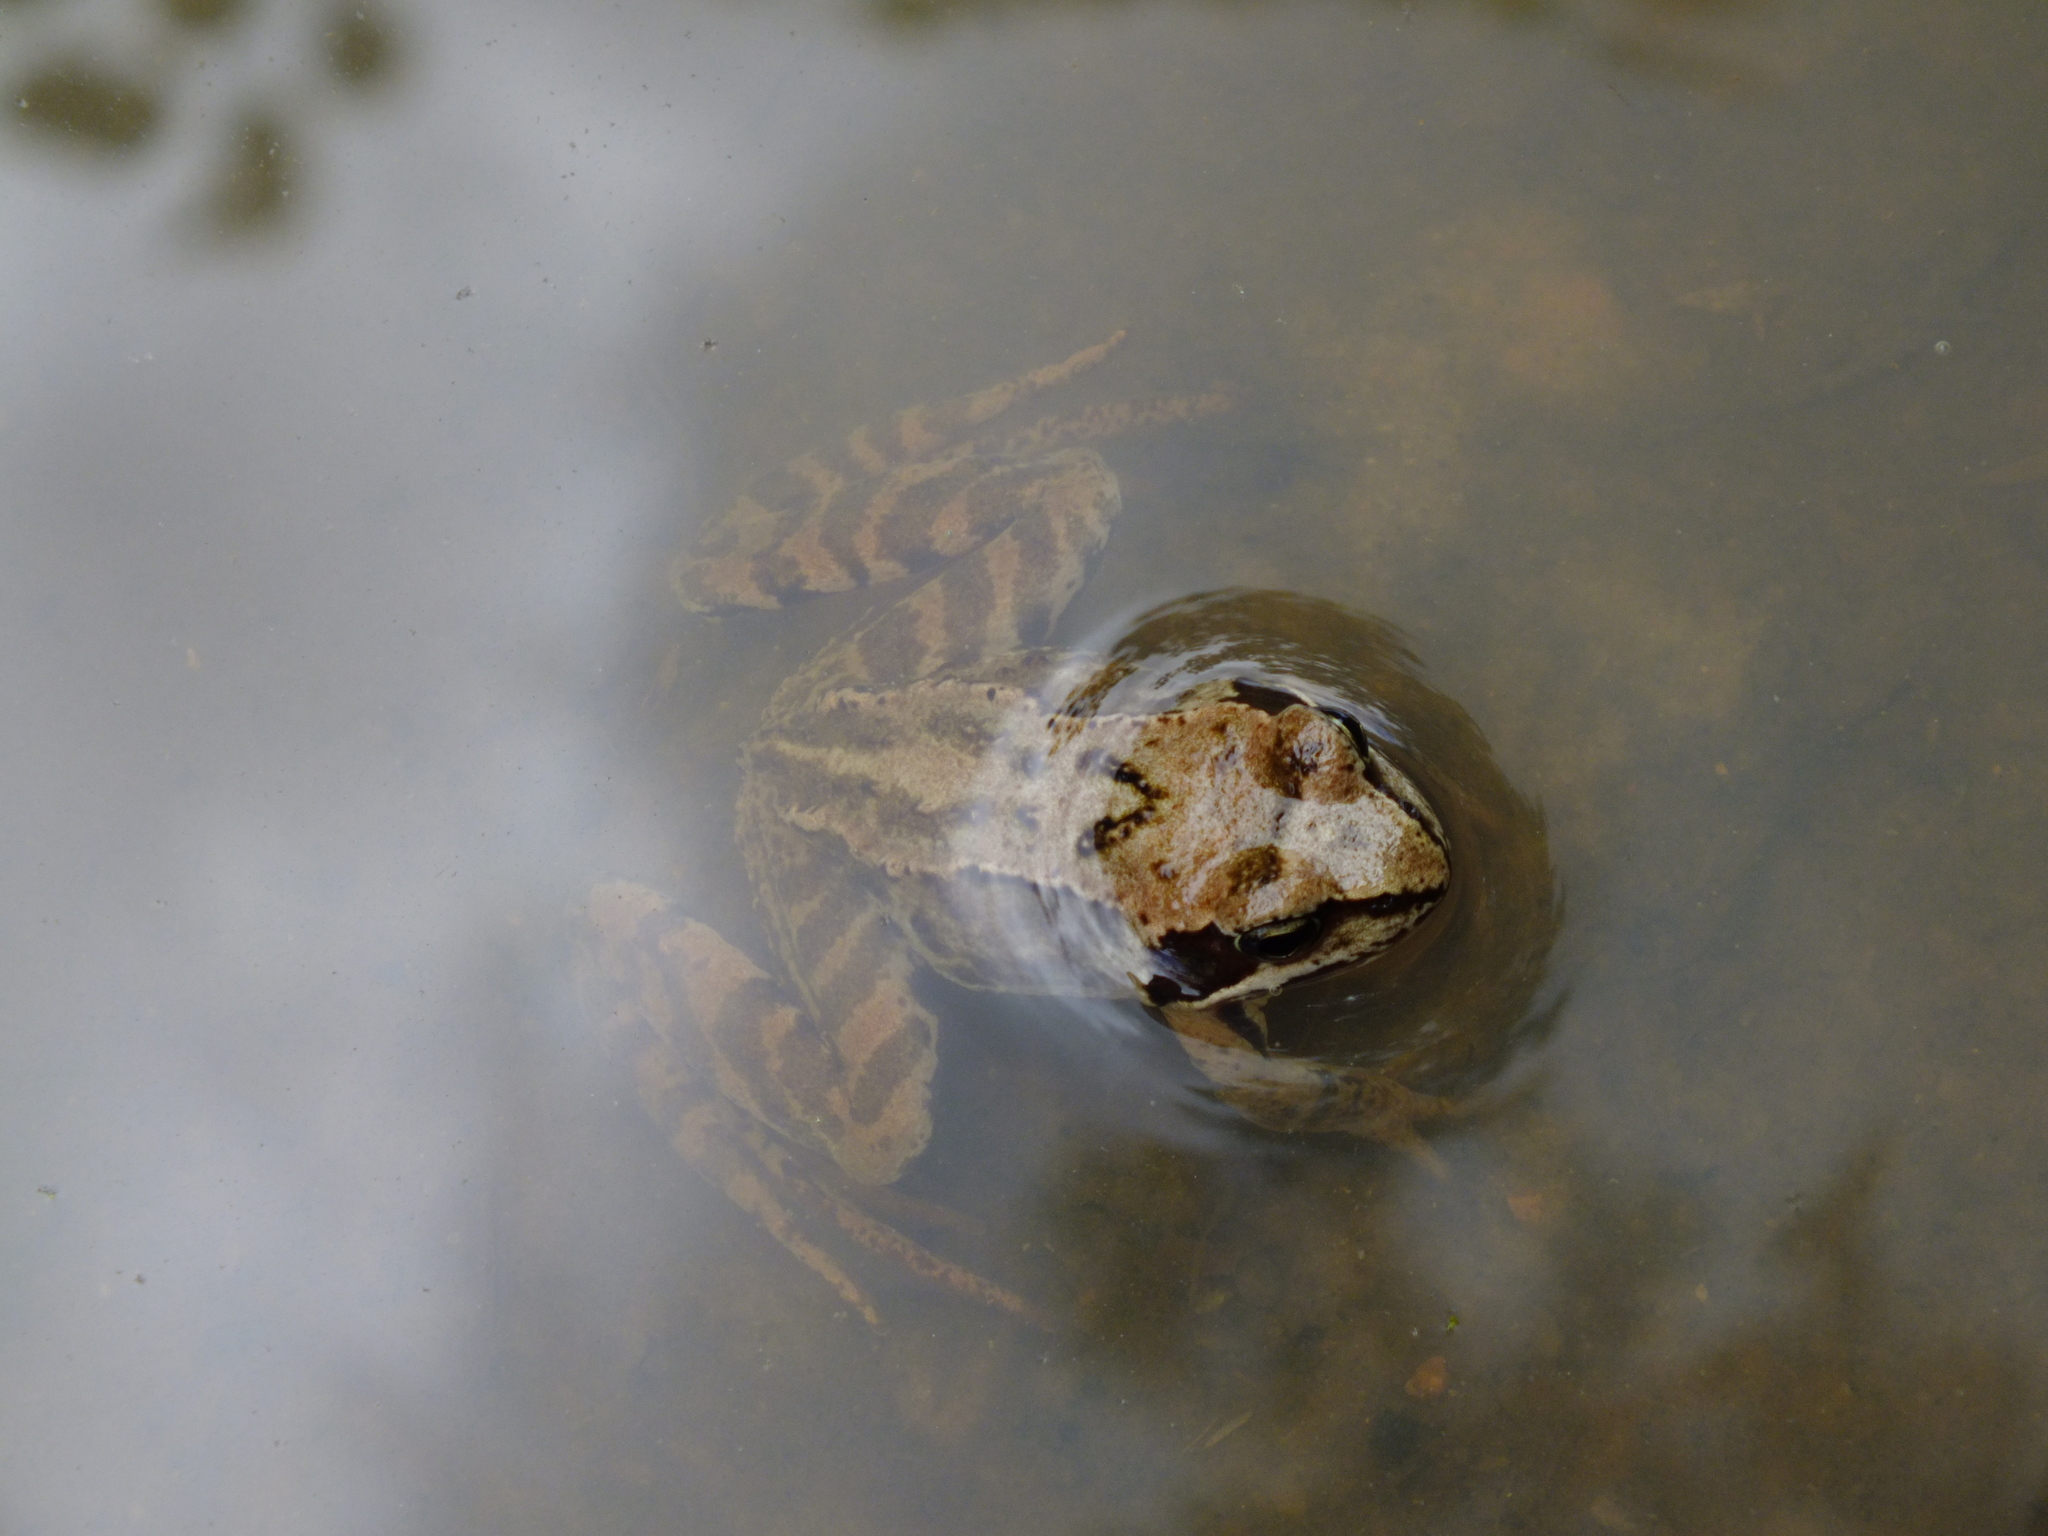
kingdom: Animalia
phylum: Chordata
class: Amphibia
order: Anura
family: Ranidae
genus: Rana
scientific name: Rana temporaria
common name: Common frog
